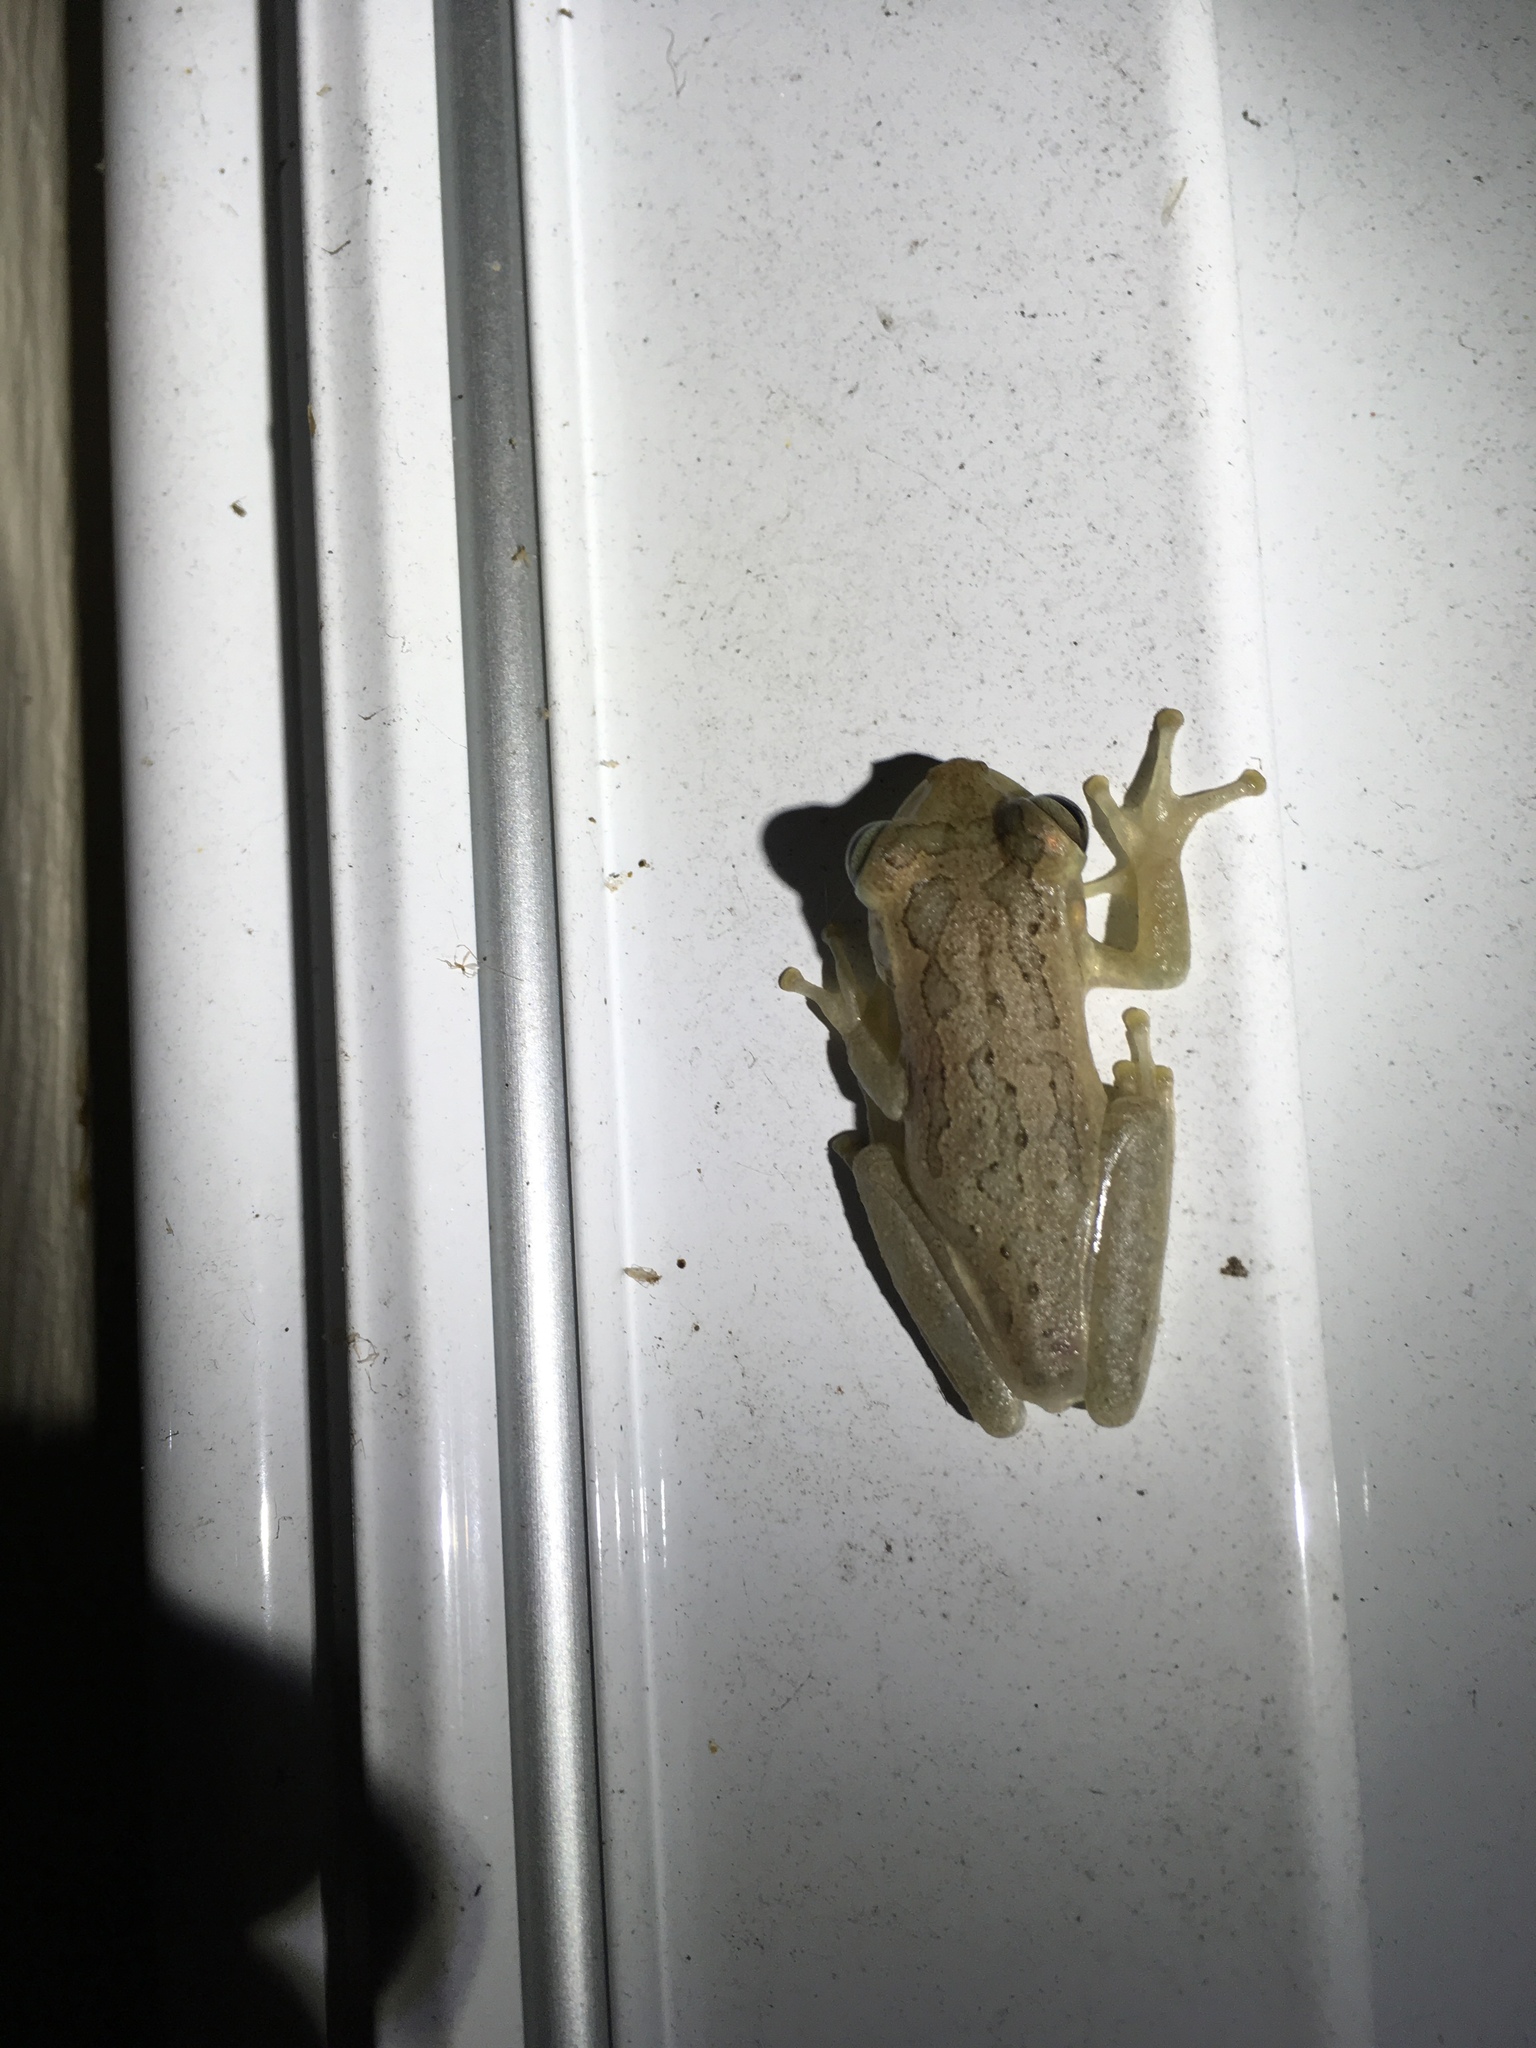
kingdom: Animalia
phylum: Chordata
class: Amphibia
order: Anura
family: Hylidae
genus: Osteopilus
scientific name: Osteopilus septentrionalis
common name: Cuban treefrog
